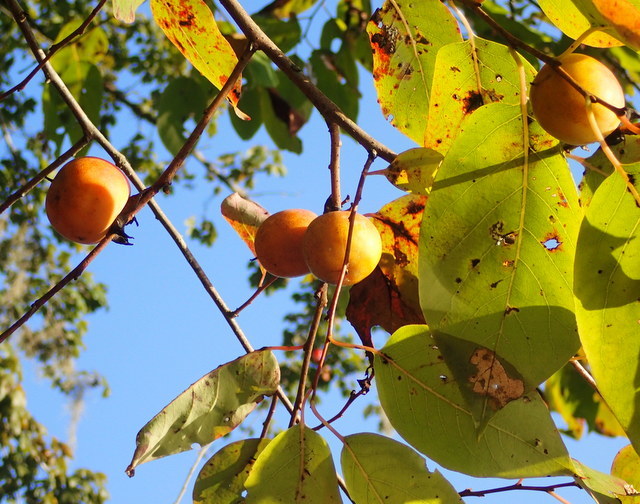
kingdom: Plantae
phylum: Tracheophyta
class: Magnoliopsida
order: Ericales
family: Ebenaceae
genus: Diospyros
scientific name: Diospyros virginiana
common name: Persimmon
